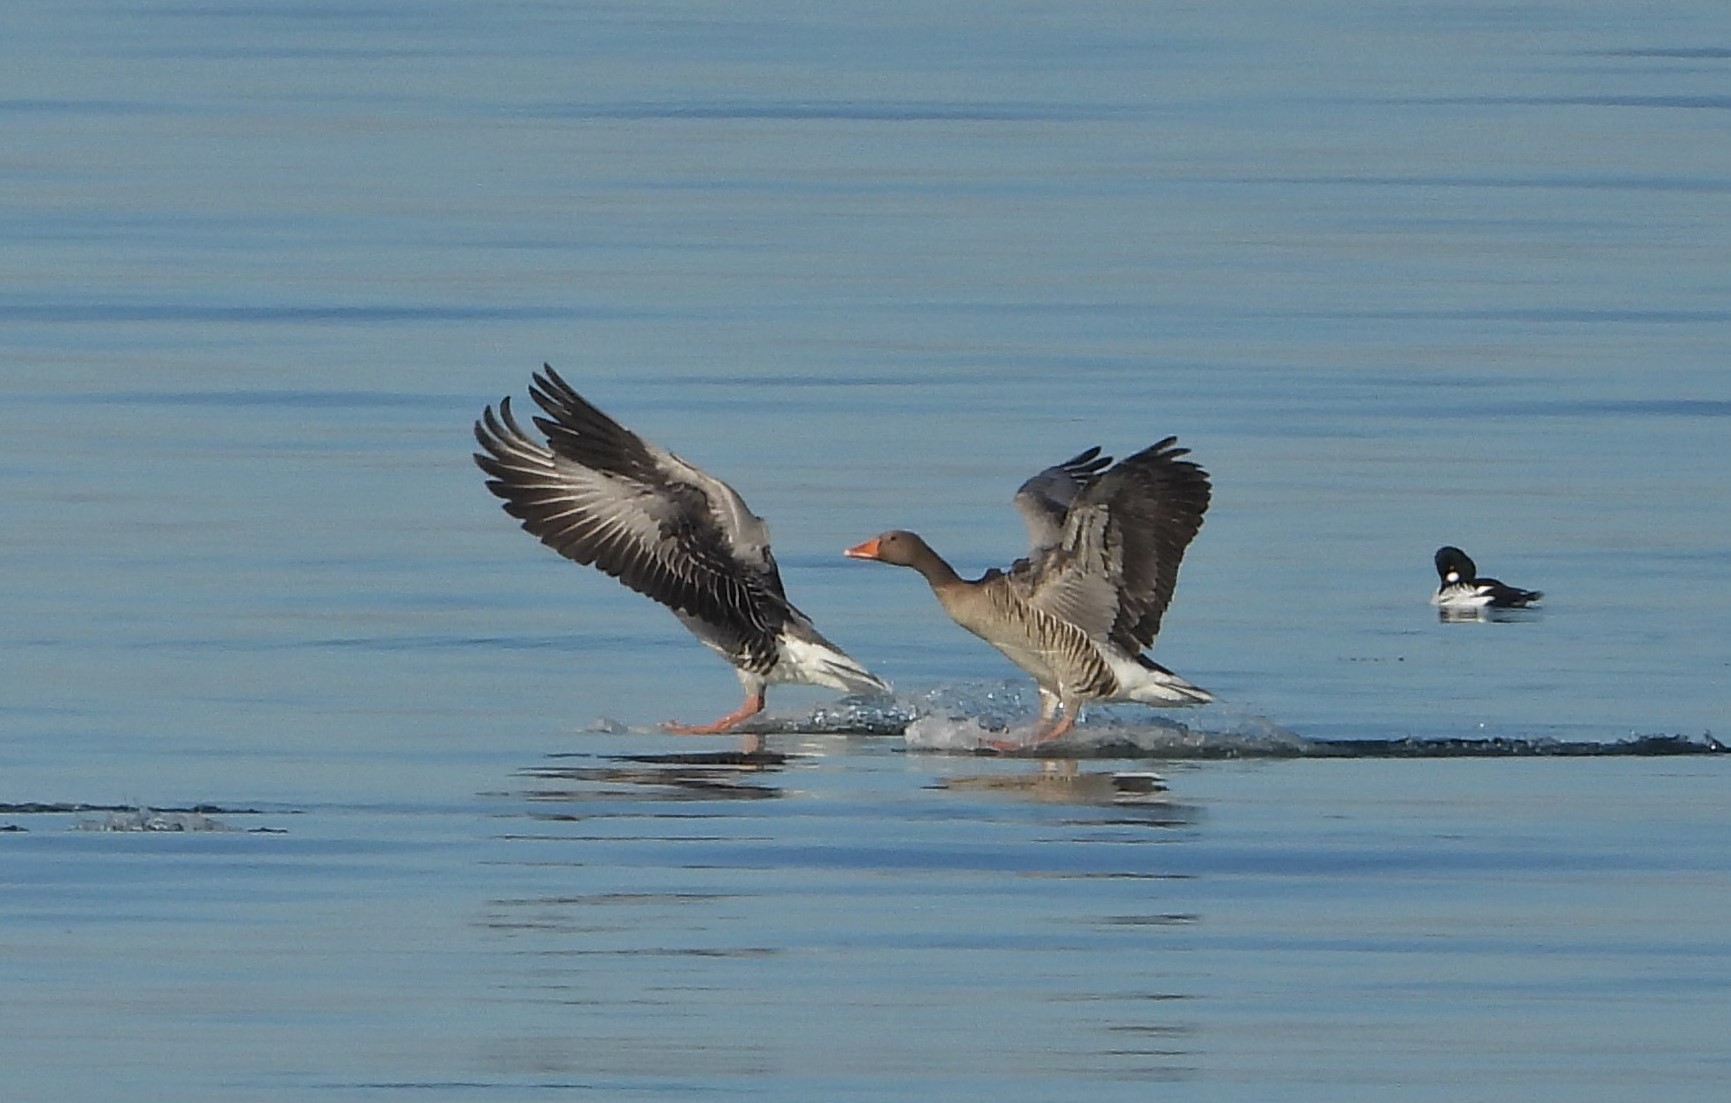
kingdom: Animalia
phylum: Chordata
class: Aves
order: Anseriformes
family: Anatidae
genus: Anser
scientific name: Anser anser
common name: Greylag goose
